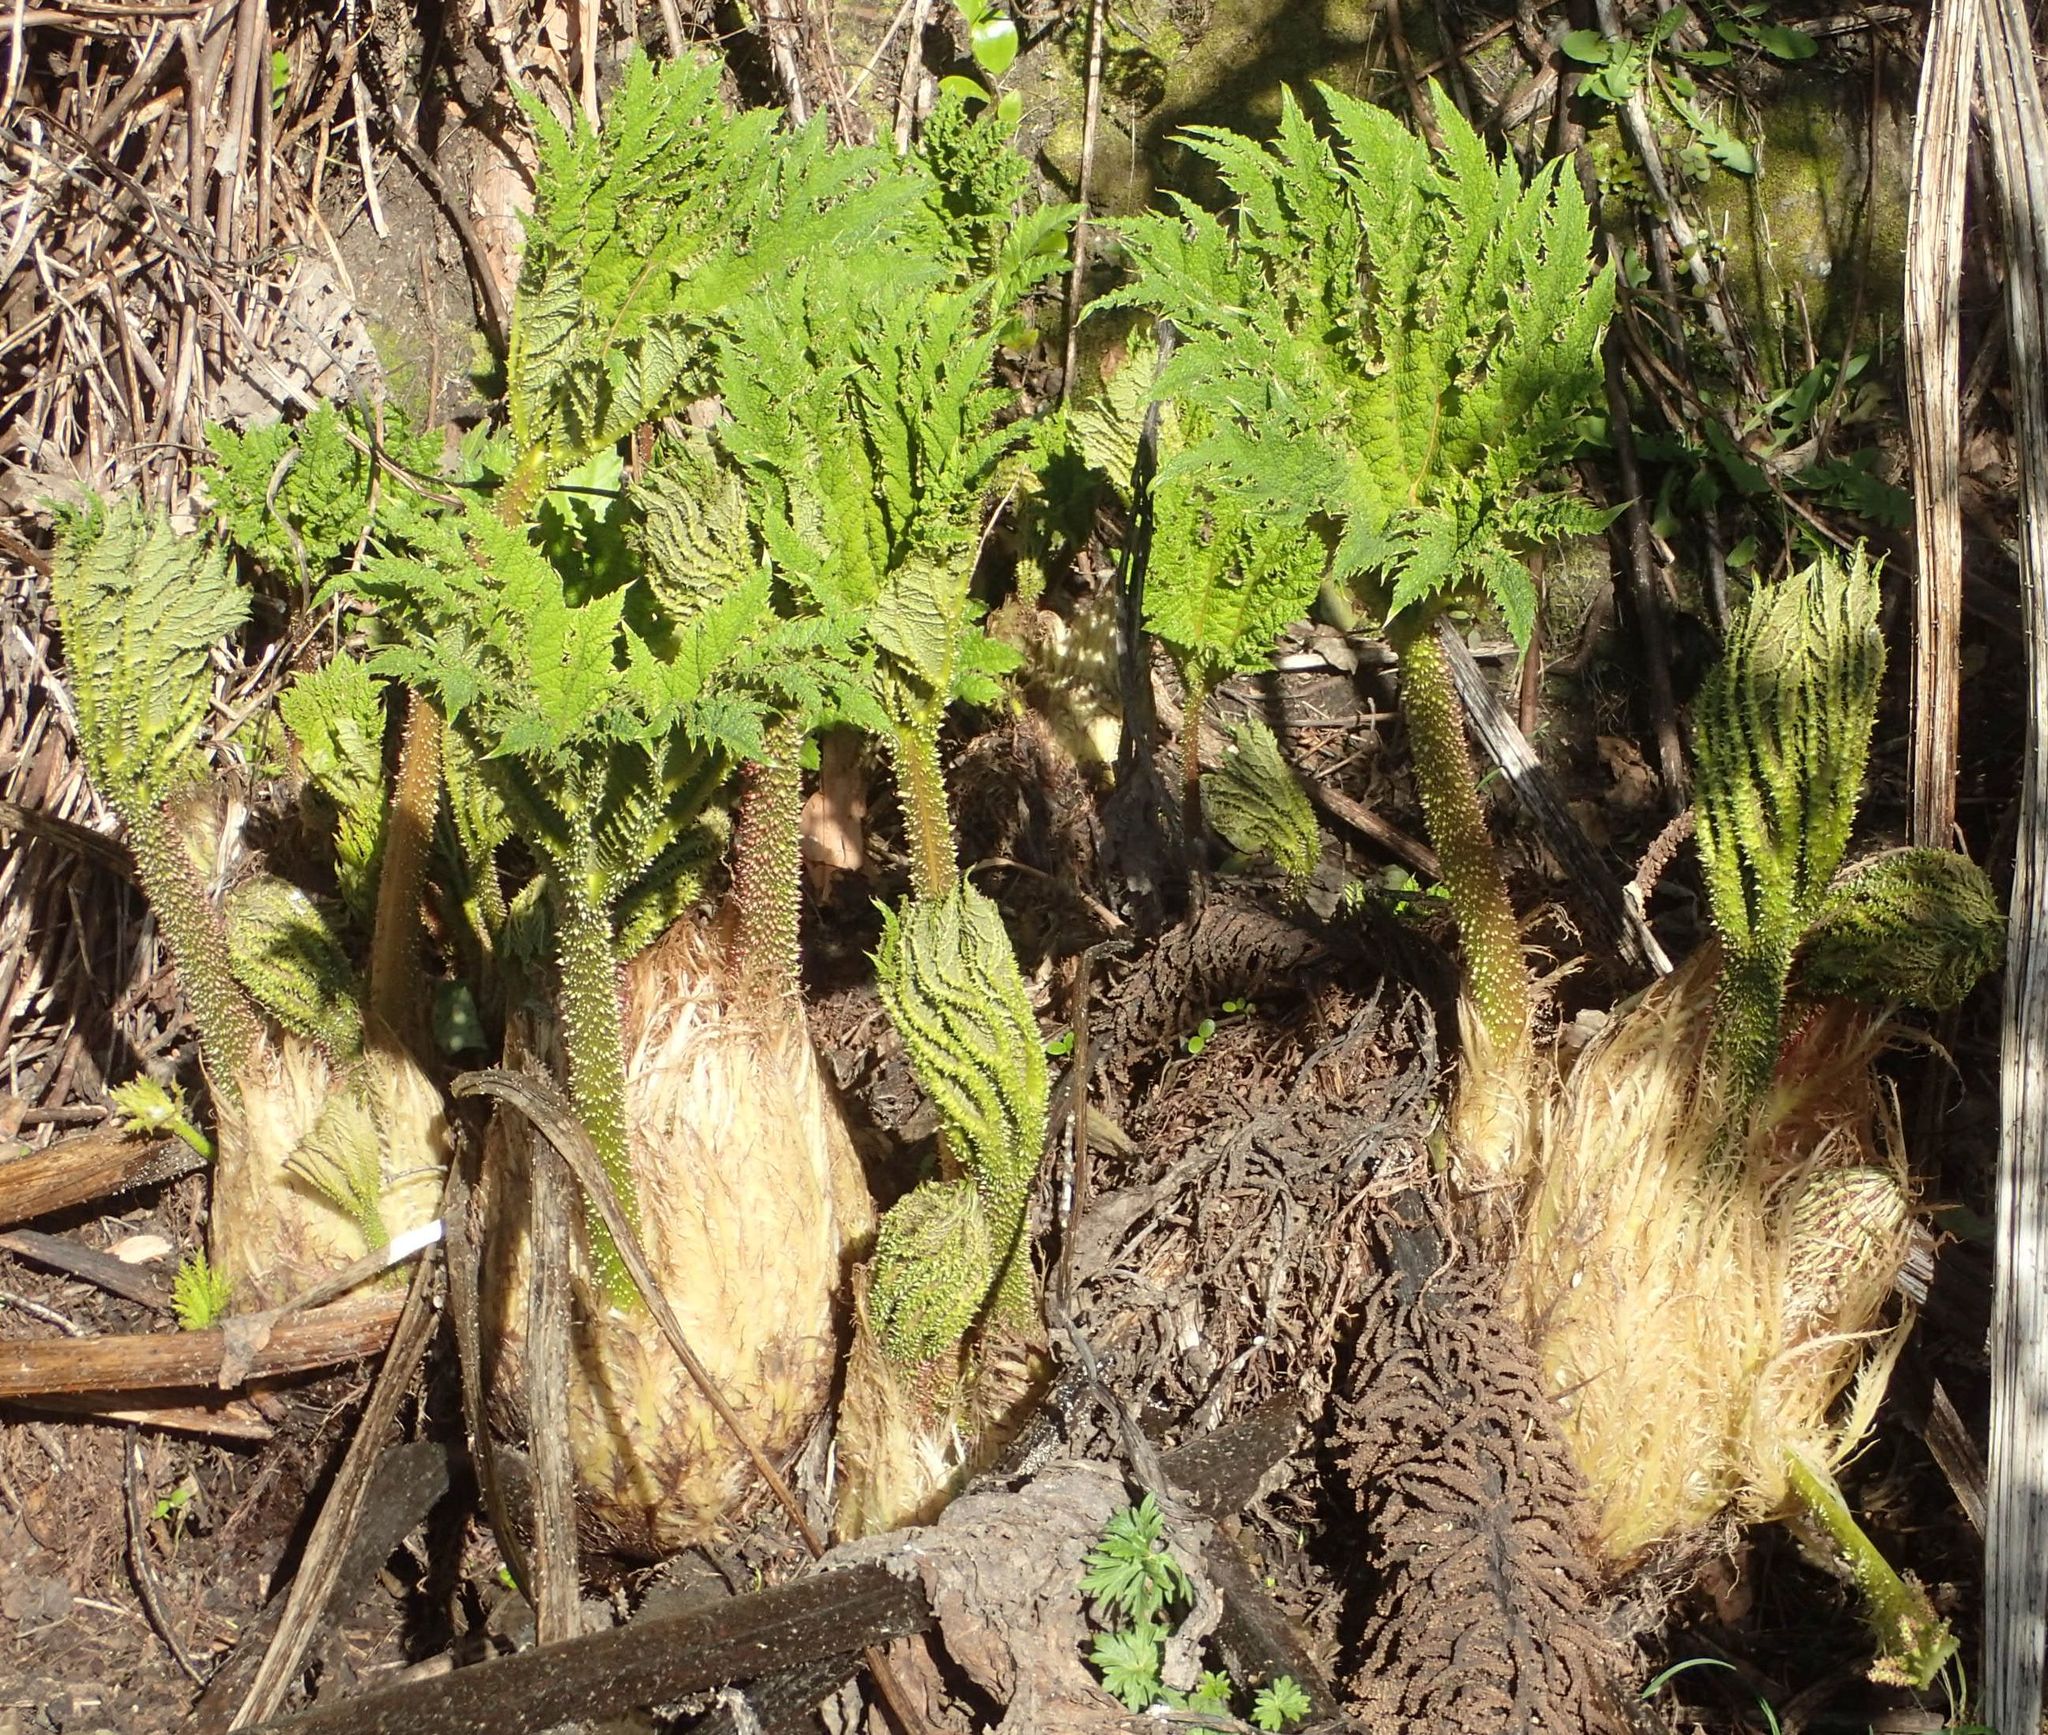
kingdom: Plantae
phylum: Tracheophyta
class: Magnoliopsida
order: Gunnerales
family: Gunneraceae
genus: Gunnera
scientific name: Gunnera tinctoria
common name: Giant-rhubarb
